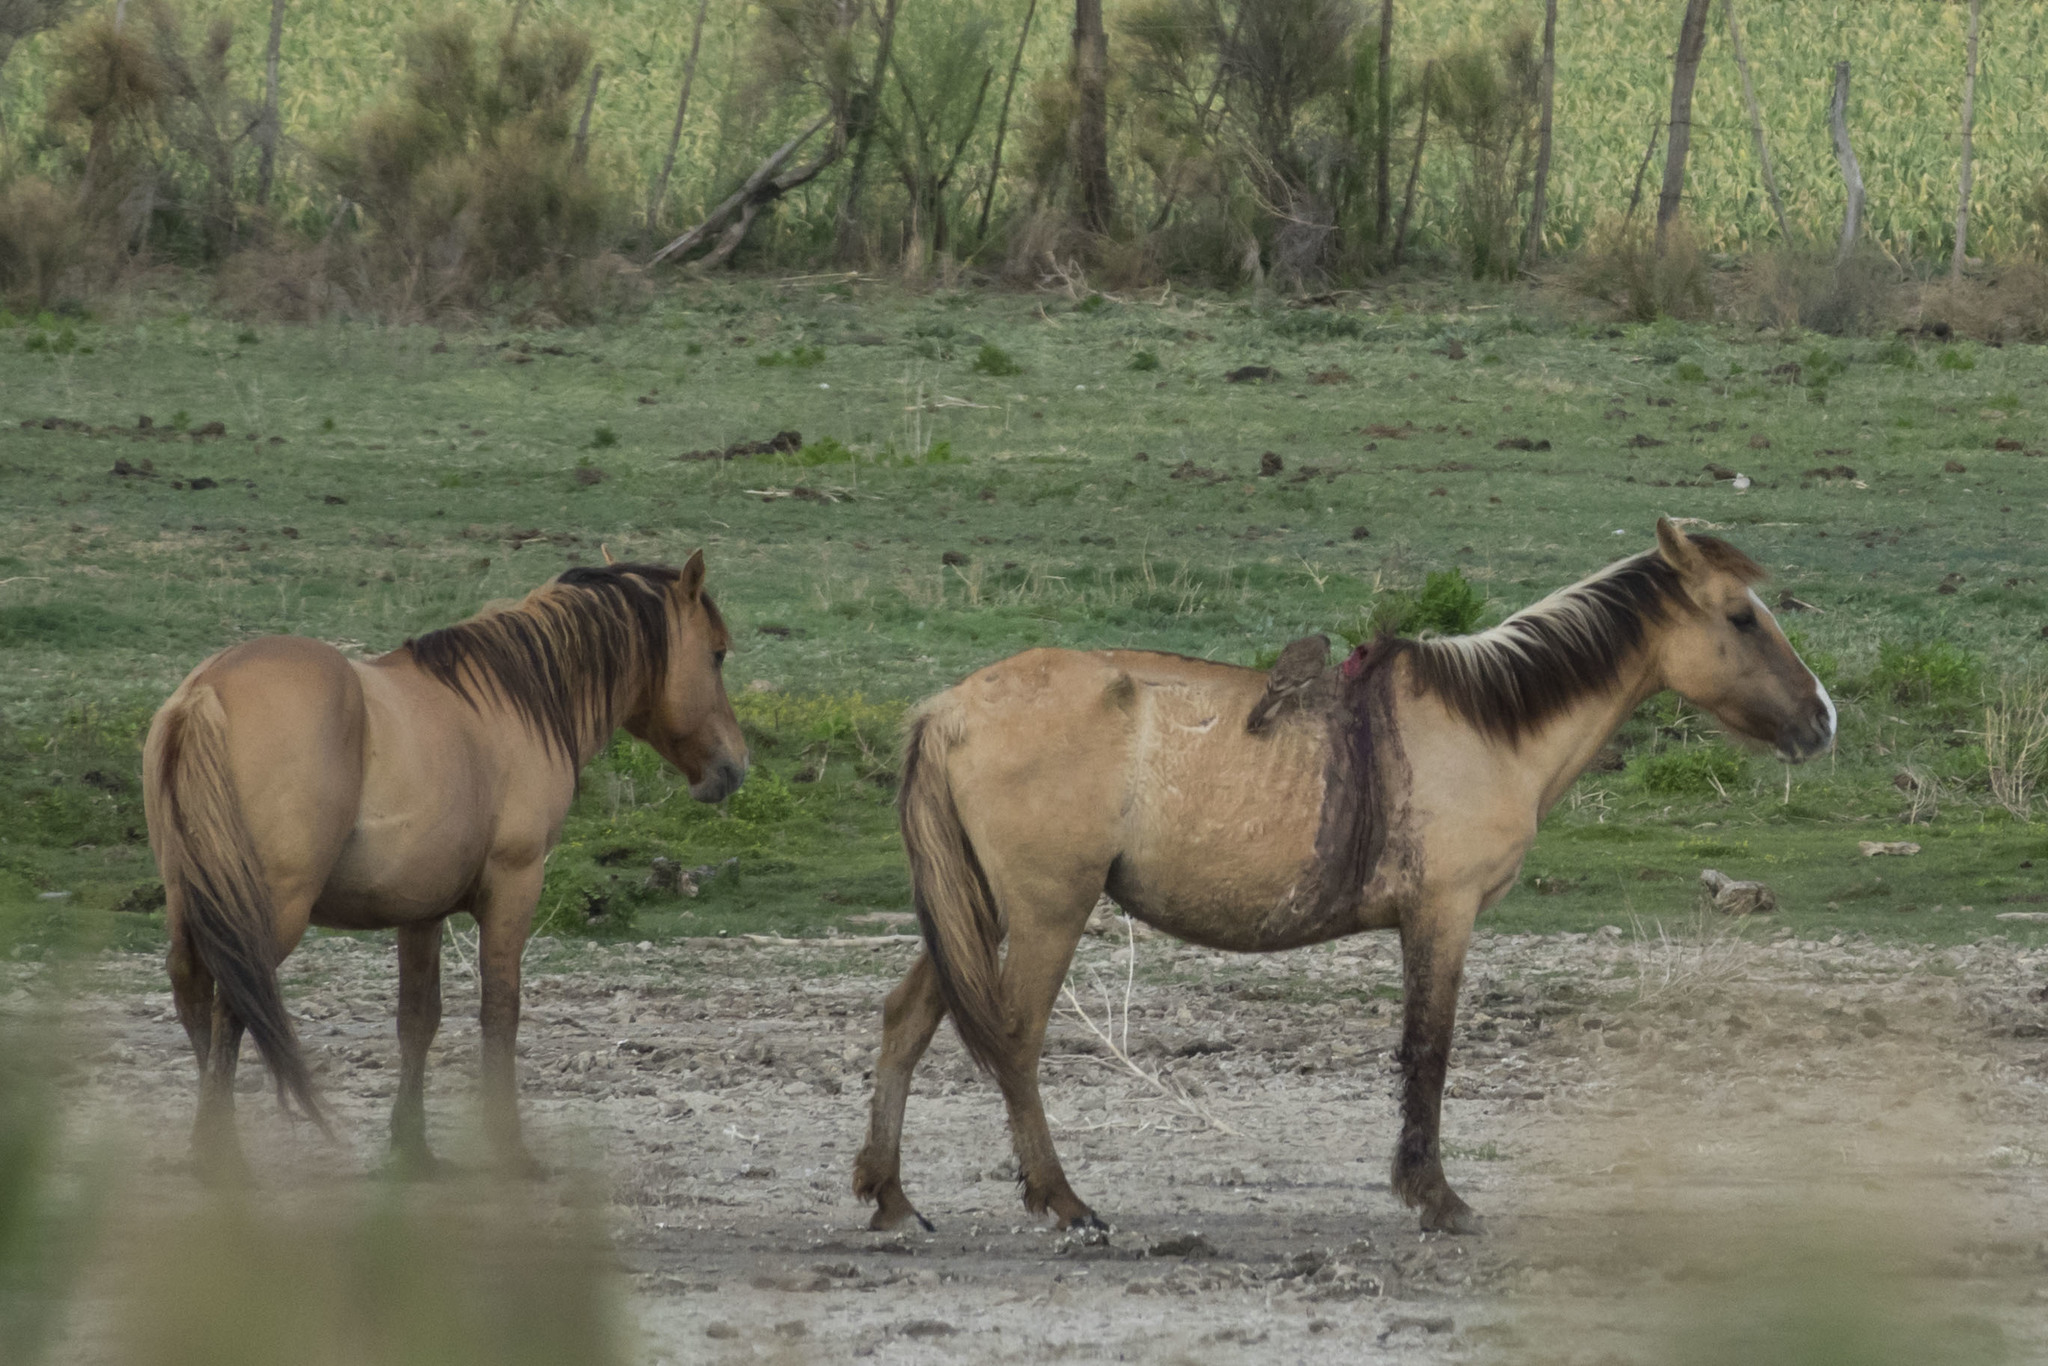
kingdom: Animalia
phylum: Chordata
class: Mammalia
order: Perissodactyla
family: Equidae
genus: Equus
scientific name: Equus caballus
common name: Horse
